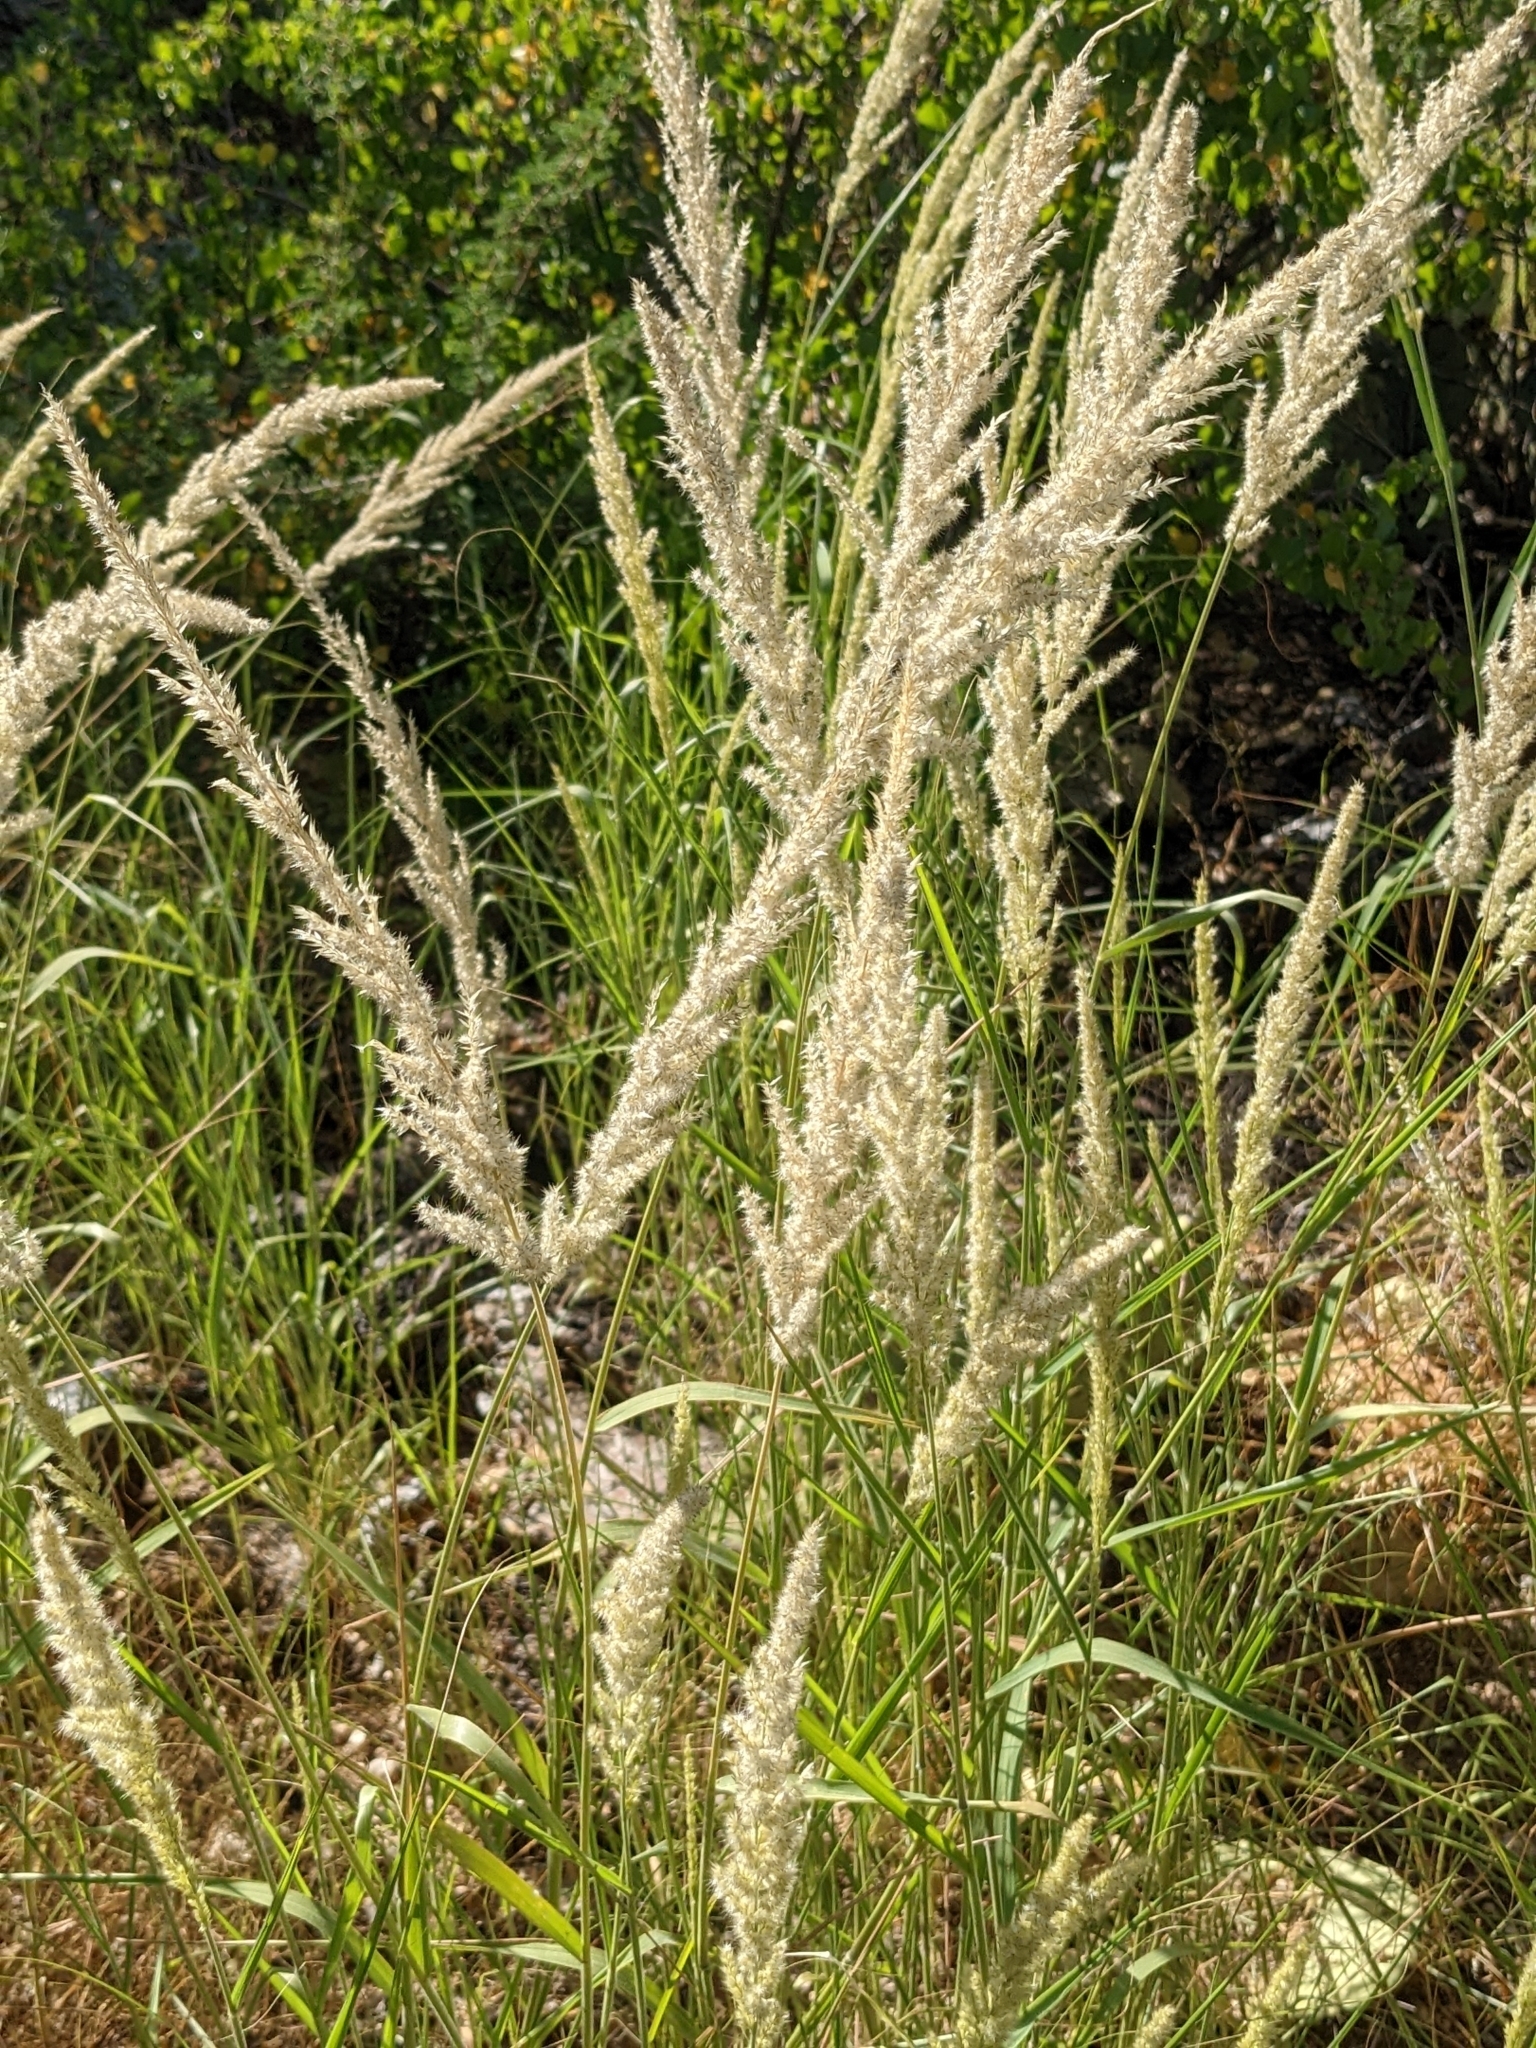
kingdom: Plantae
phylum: Tracheophyta
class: Liliopsida
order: Poales
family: Poaceae
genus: Enneapogon
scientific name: Enneapogon cenchroides
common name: Soft feather pappusgrass
